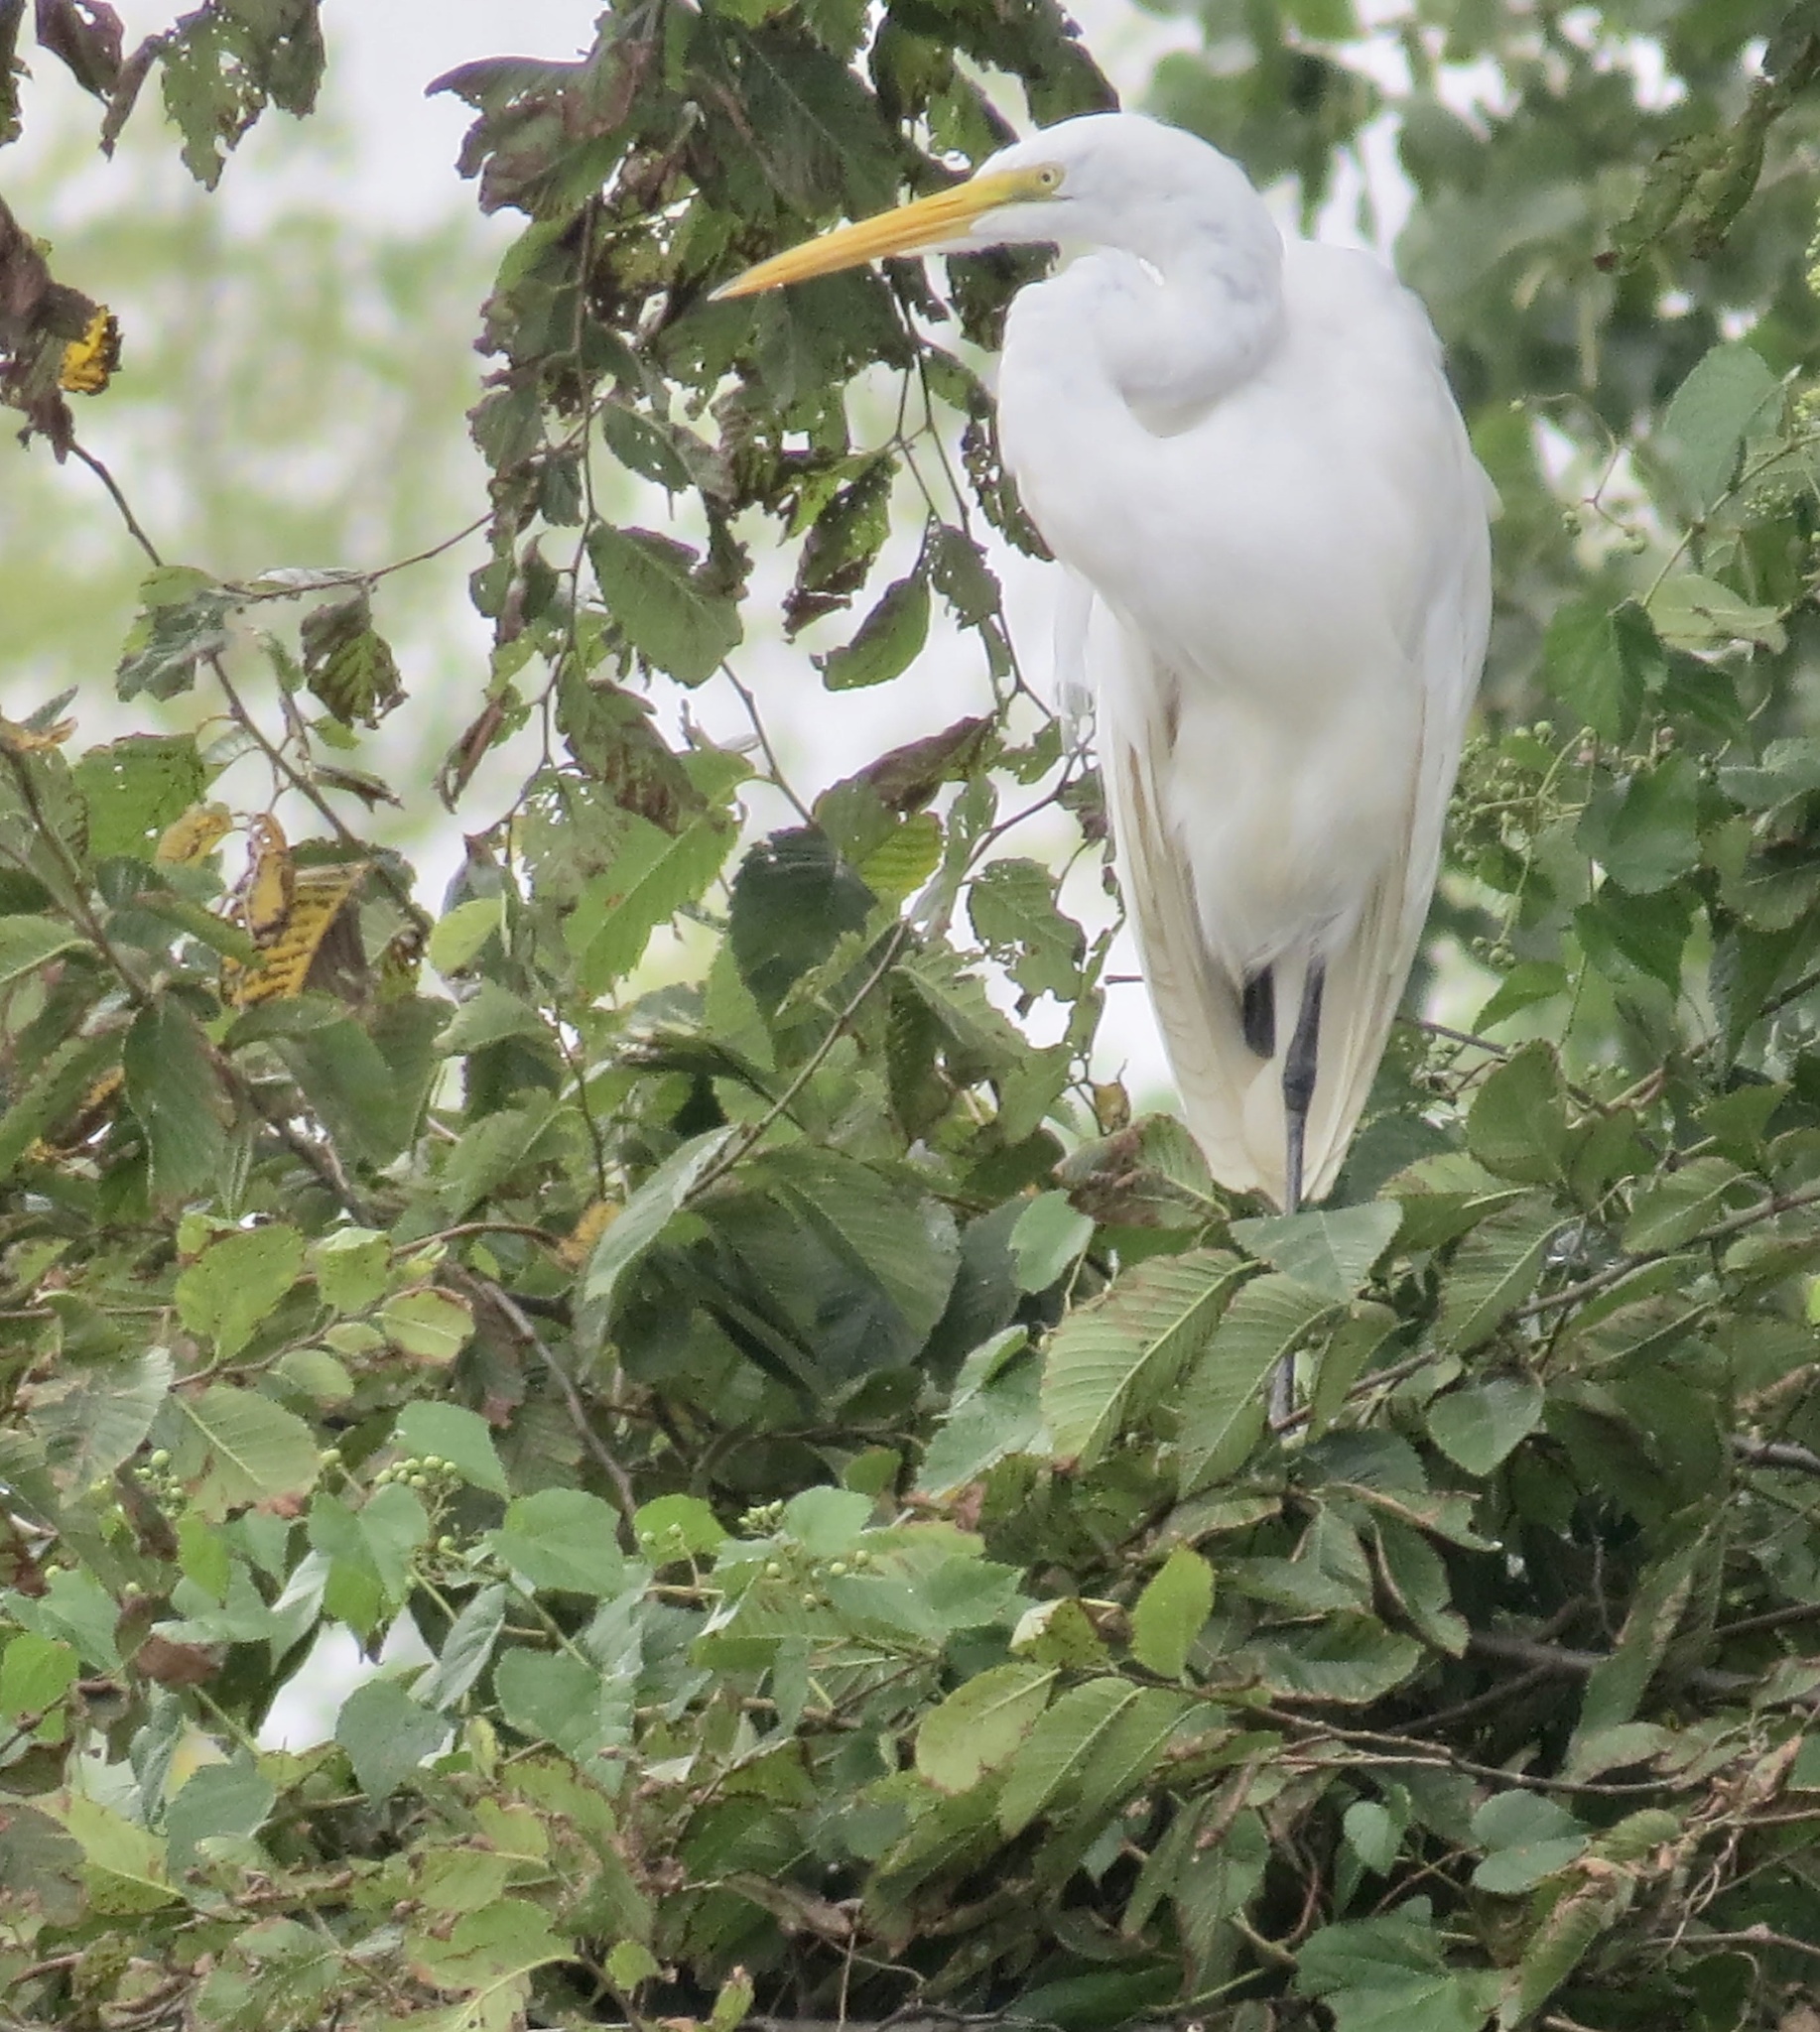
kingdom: Animalia
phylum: Chordata
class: Aves
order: Pelecaniformes
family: Ardeidae
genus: Ardea
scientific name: Ardea alba
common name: Great egret
